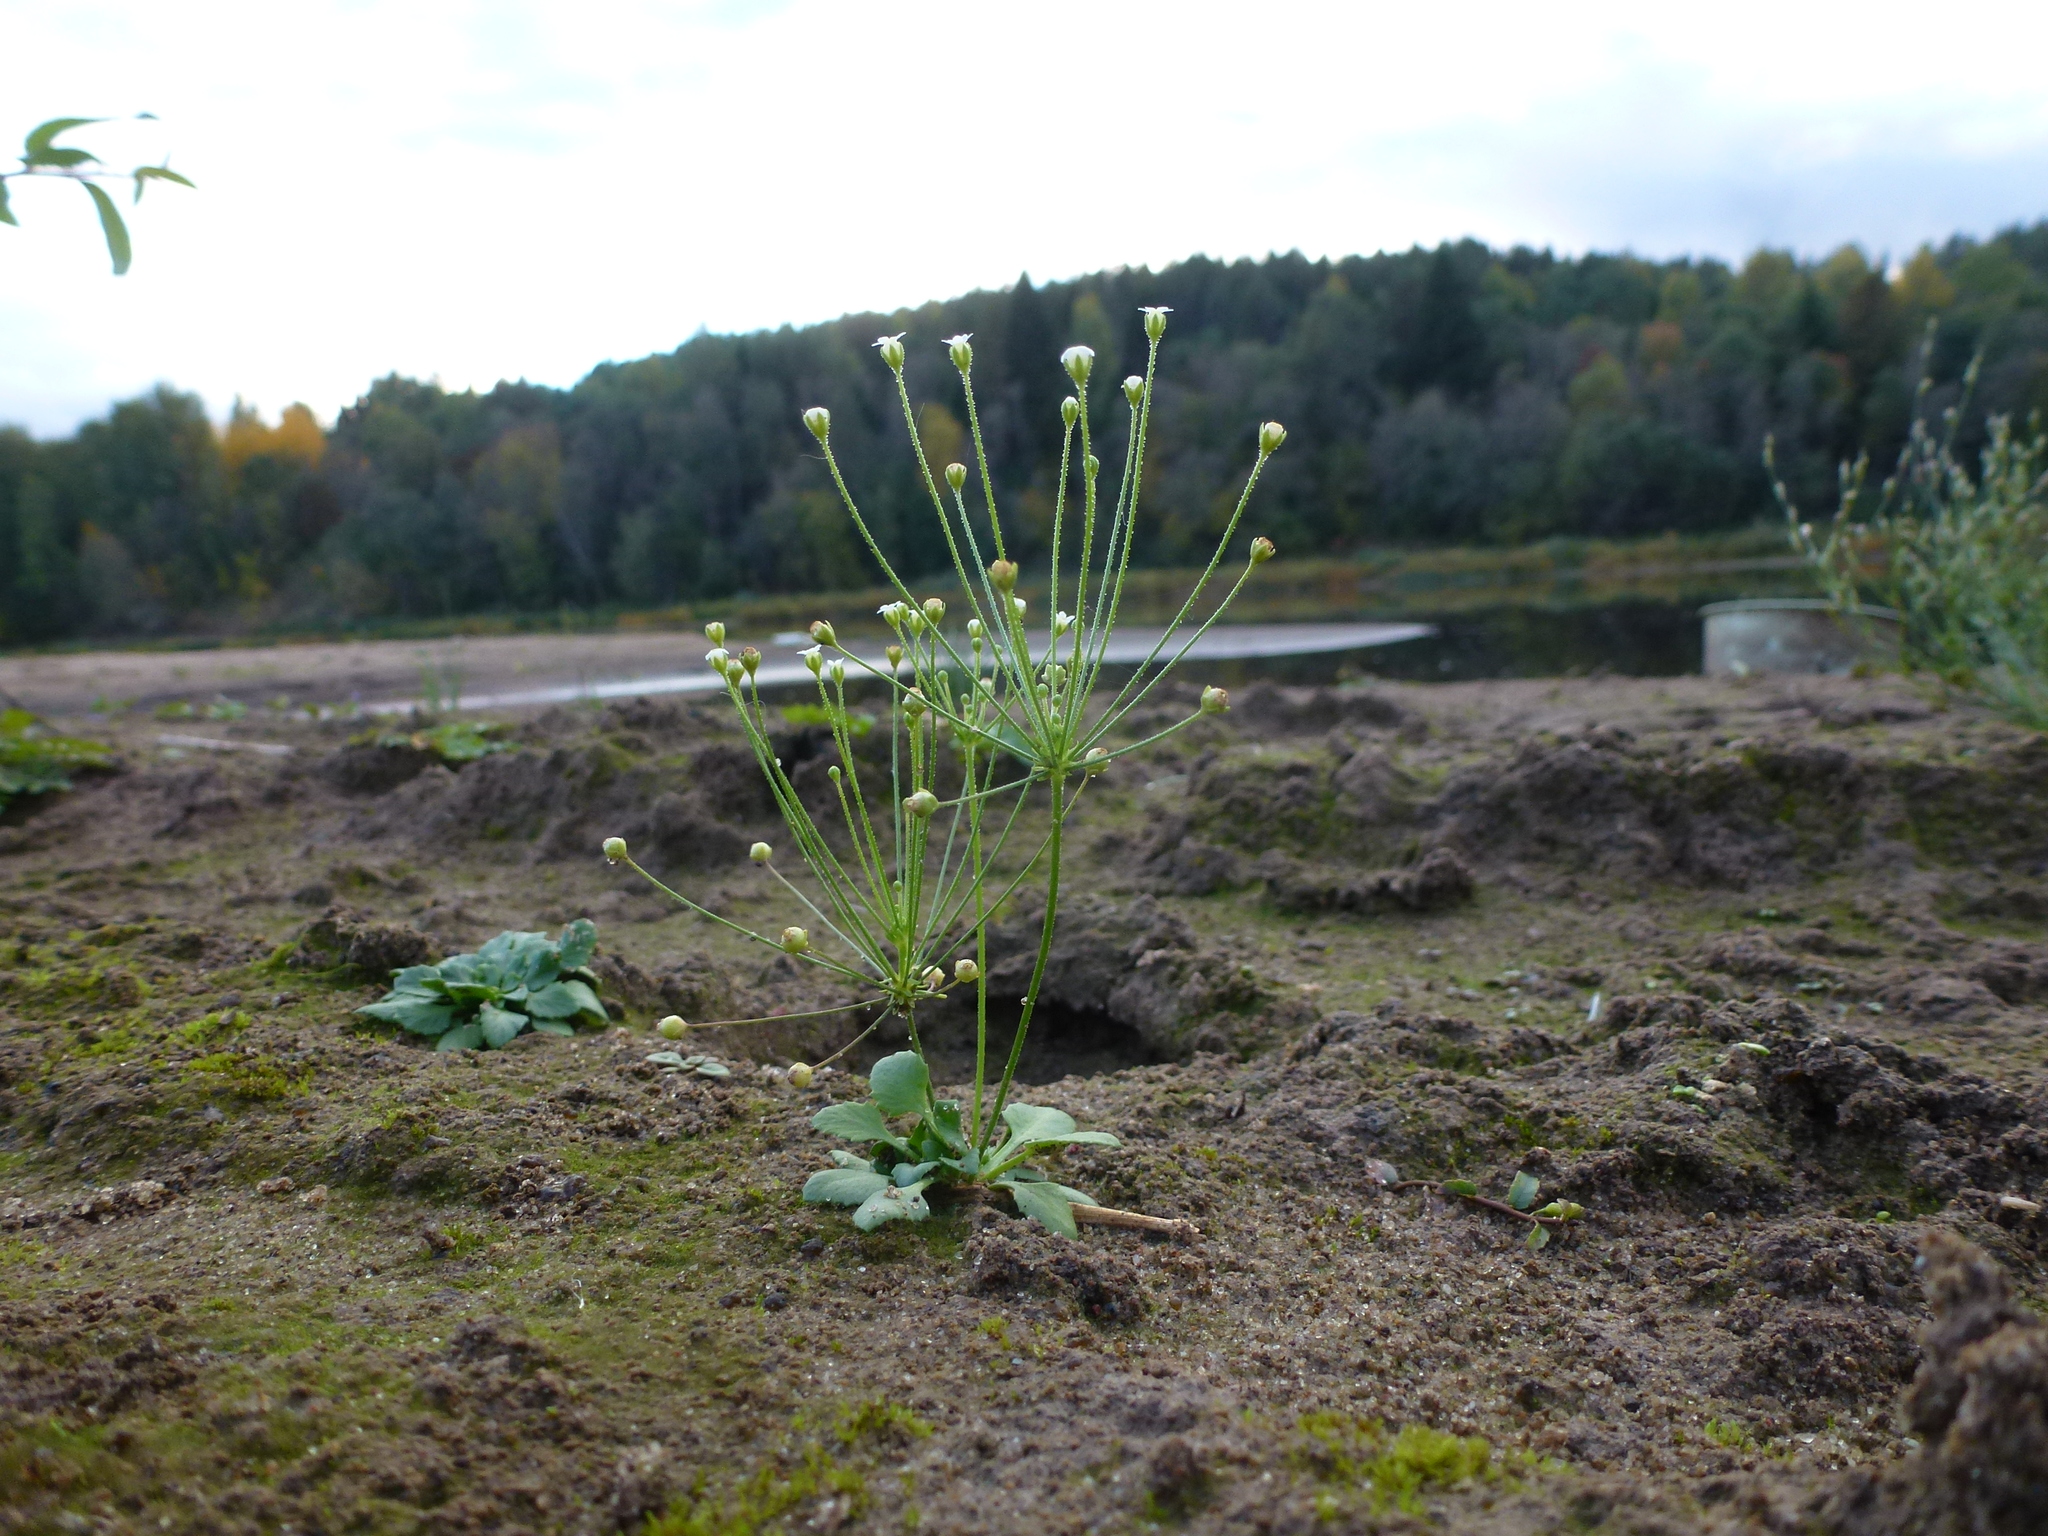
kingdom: Plantae
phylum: Tracheophyta
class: Magnoliopsida
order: Ericales
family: Primulaceae
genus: Androsace
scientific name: Androsace filiformis
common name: Filiform rock jasmine
